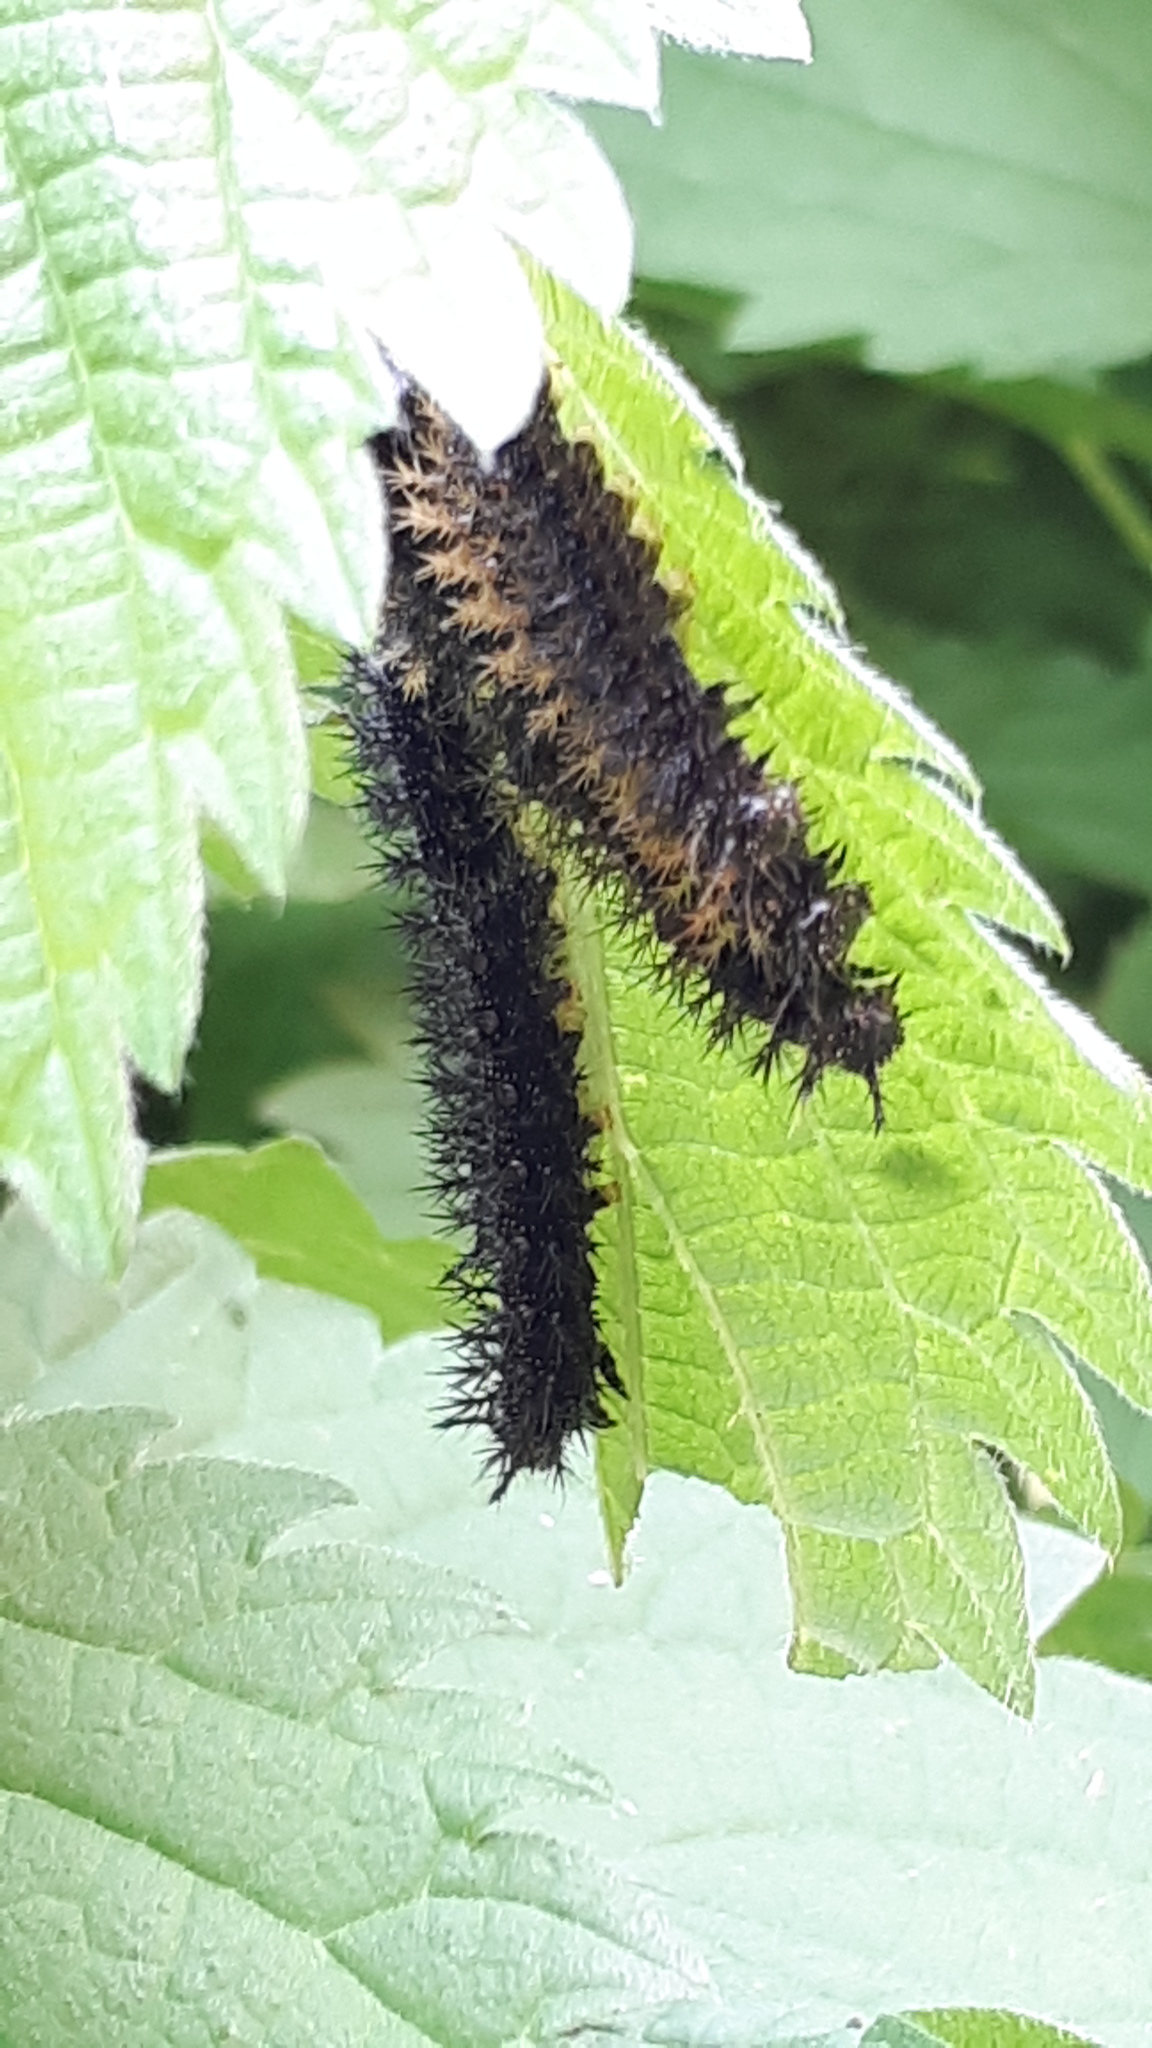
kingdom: Animalia
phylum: Arthropoda
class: Insecta
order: Lepidoptera
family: Nymphalidae
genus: Araschnia
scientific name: Araschnia levana
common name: Map butterfly
